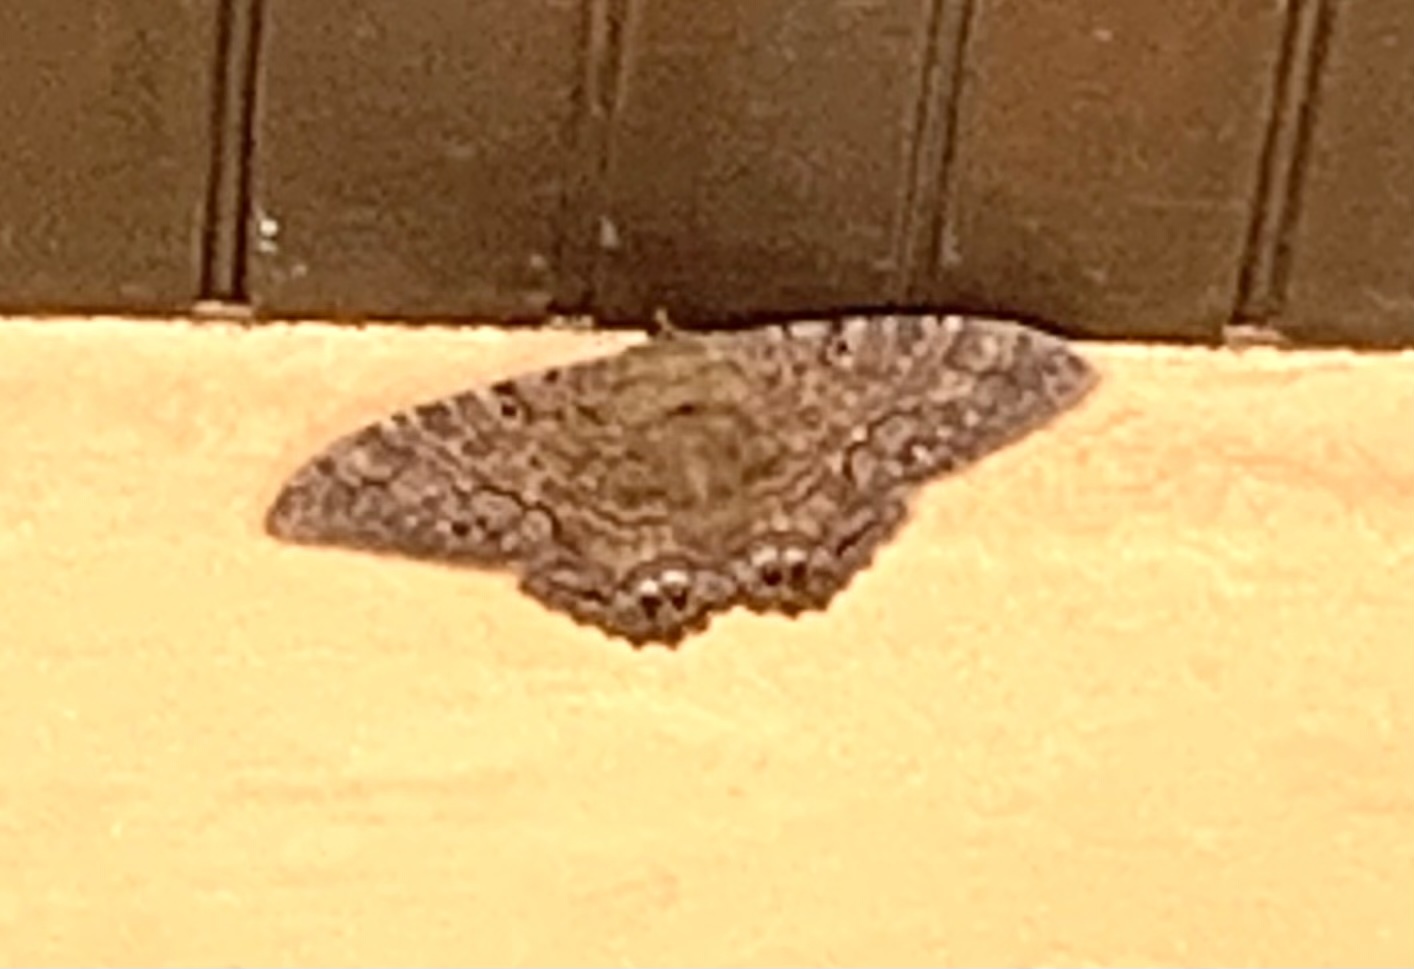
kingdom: Animalia
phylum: Arthropoda
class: Insecta
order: Lepidoptera
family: Erebidae
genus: Ascalapha
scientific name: Ascalapha odorata
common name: Black witch
